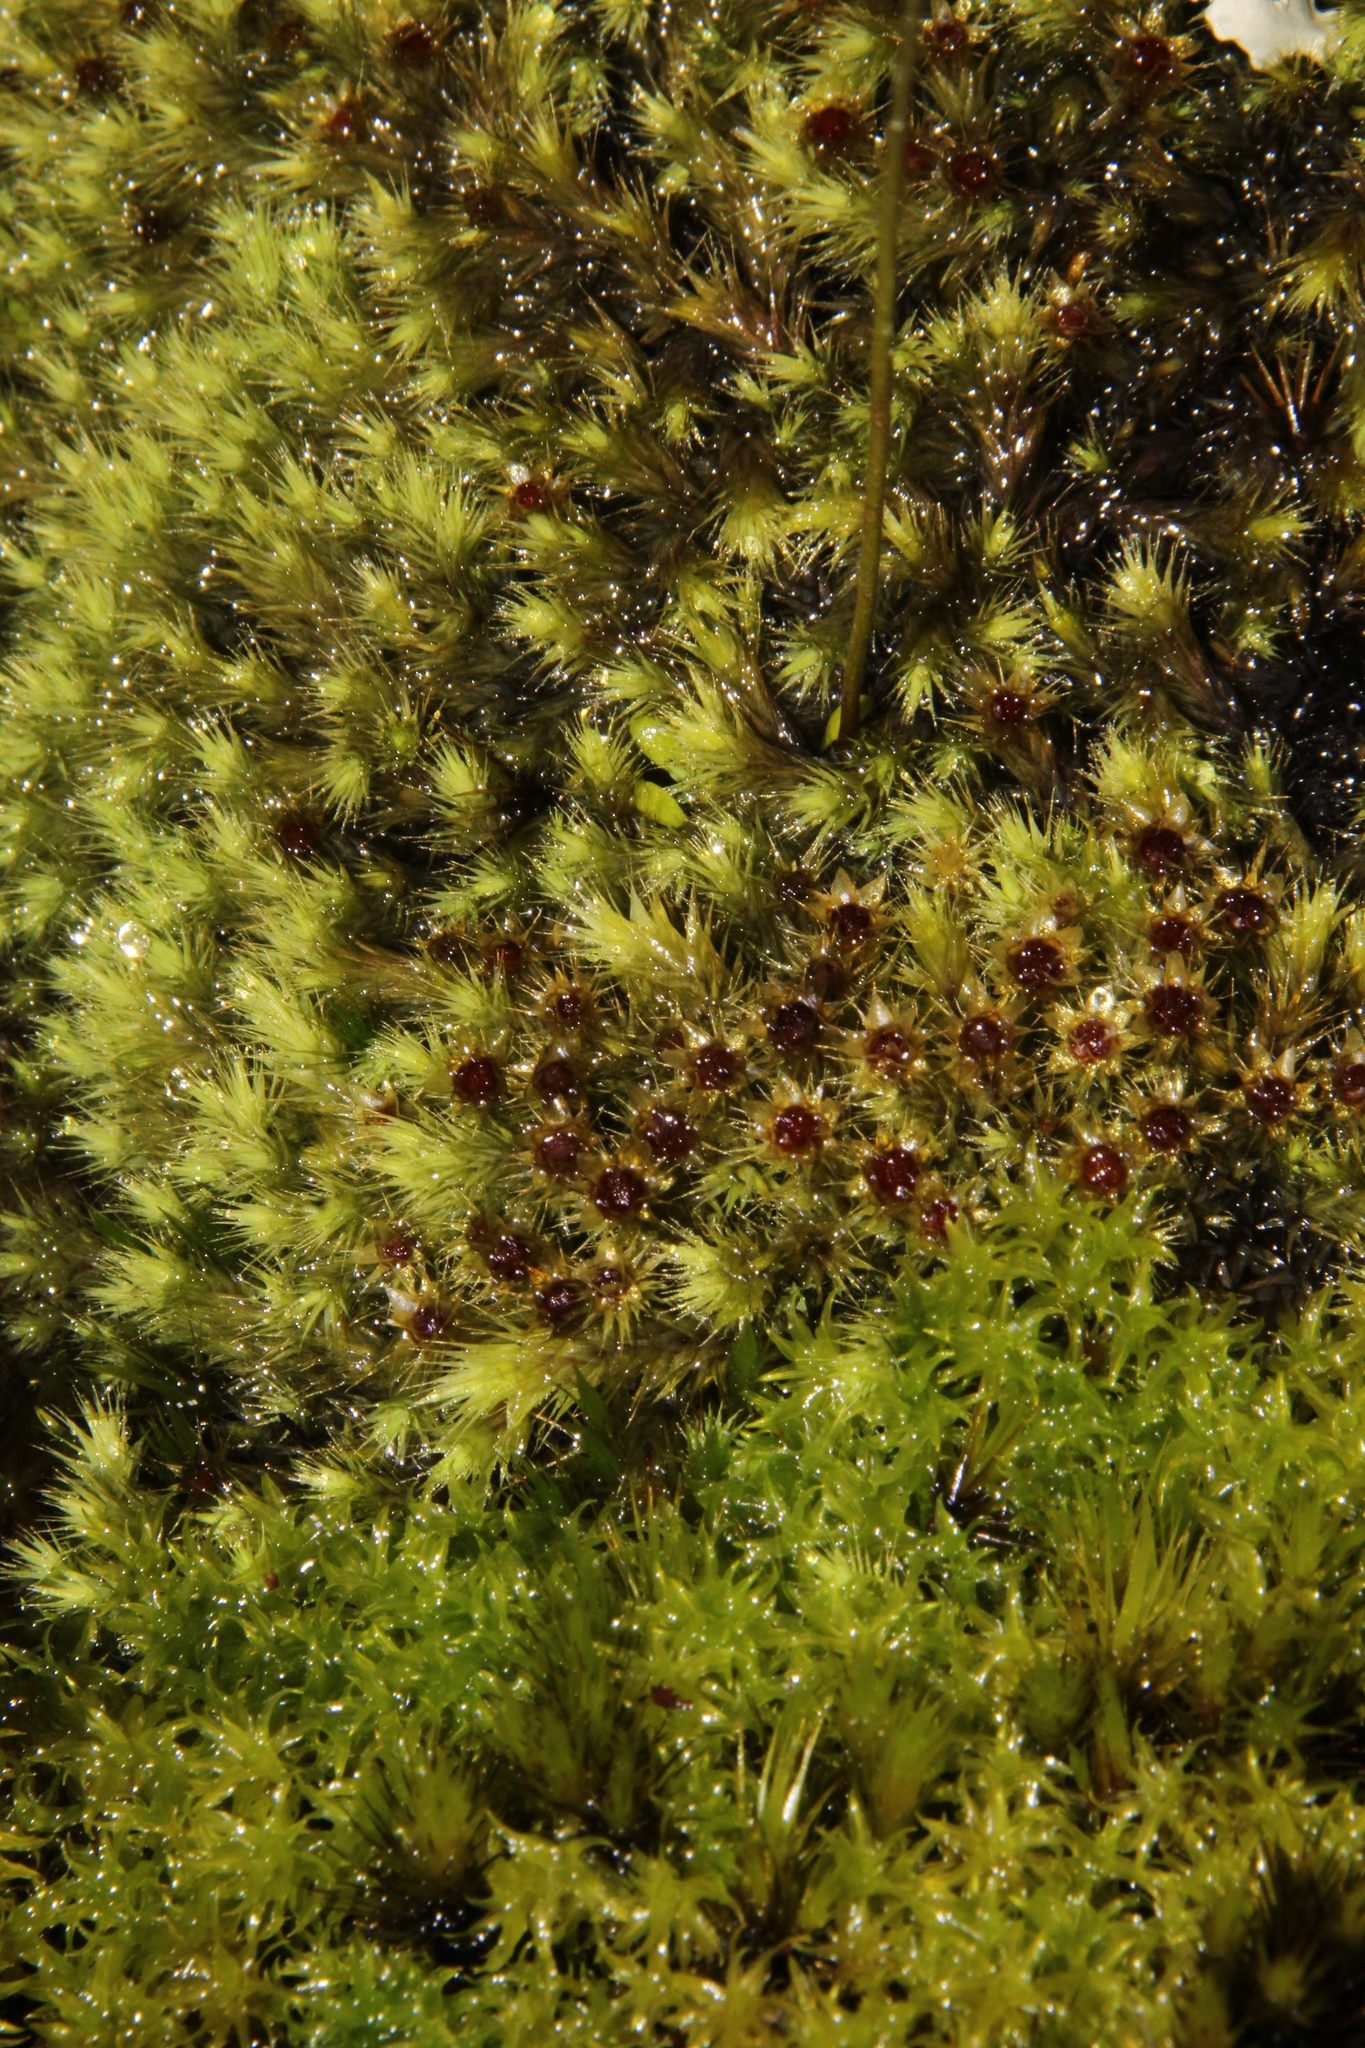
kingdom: Plantae
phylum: Bryophyta
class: Bryopsida
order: Bartramiales
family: Bartramiaceae
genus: Breutelia
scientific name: Breutelia affinis
